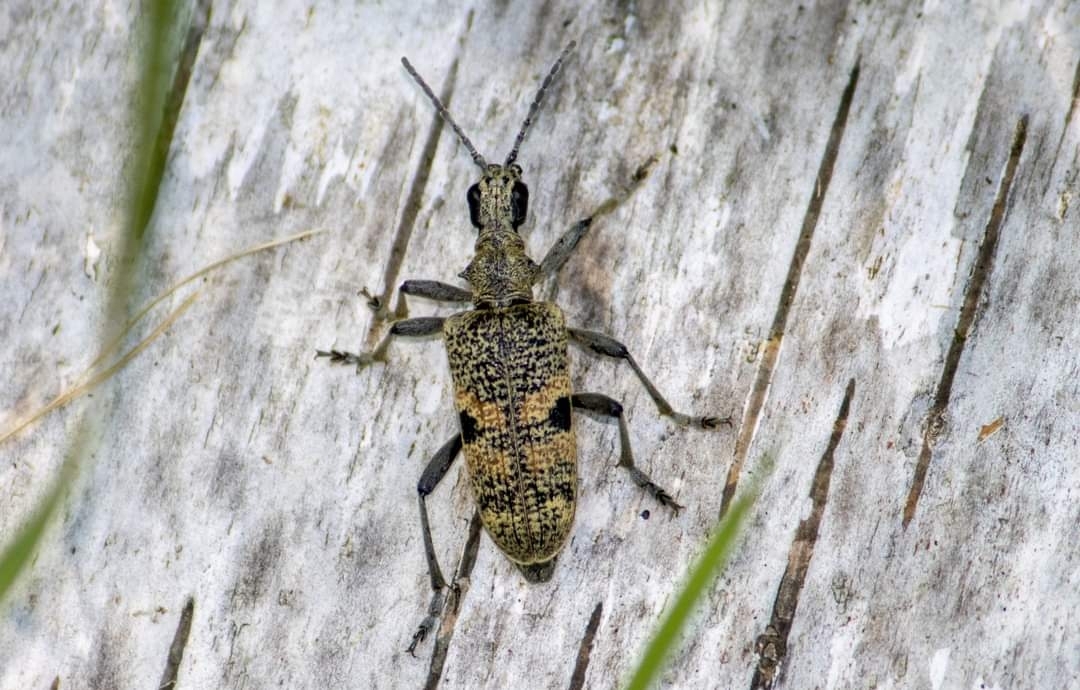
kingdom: Animalia
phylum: Arthropoda
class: Insecta
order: Coleoptera
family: Cerambycidae
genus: Rhagium
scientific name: Rhagium mordax
